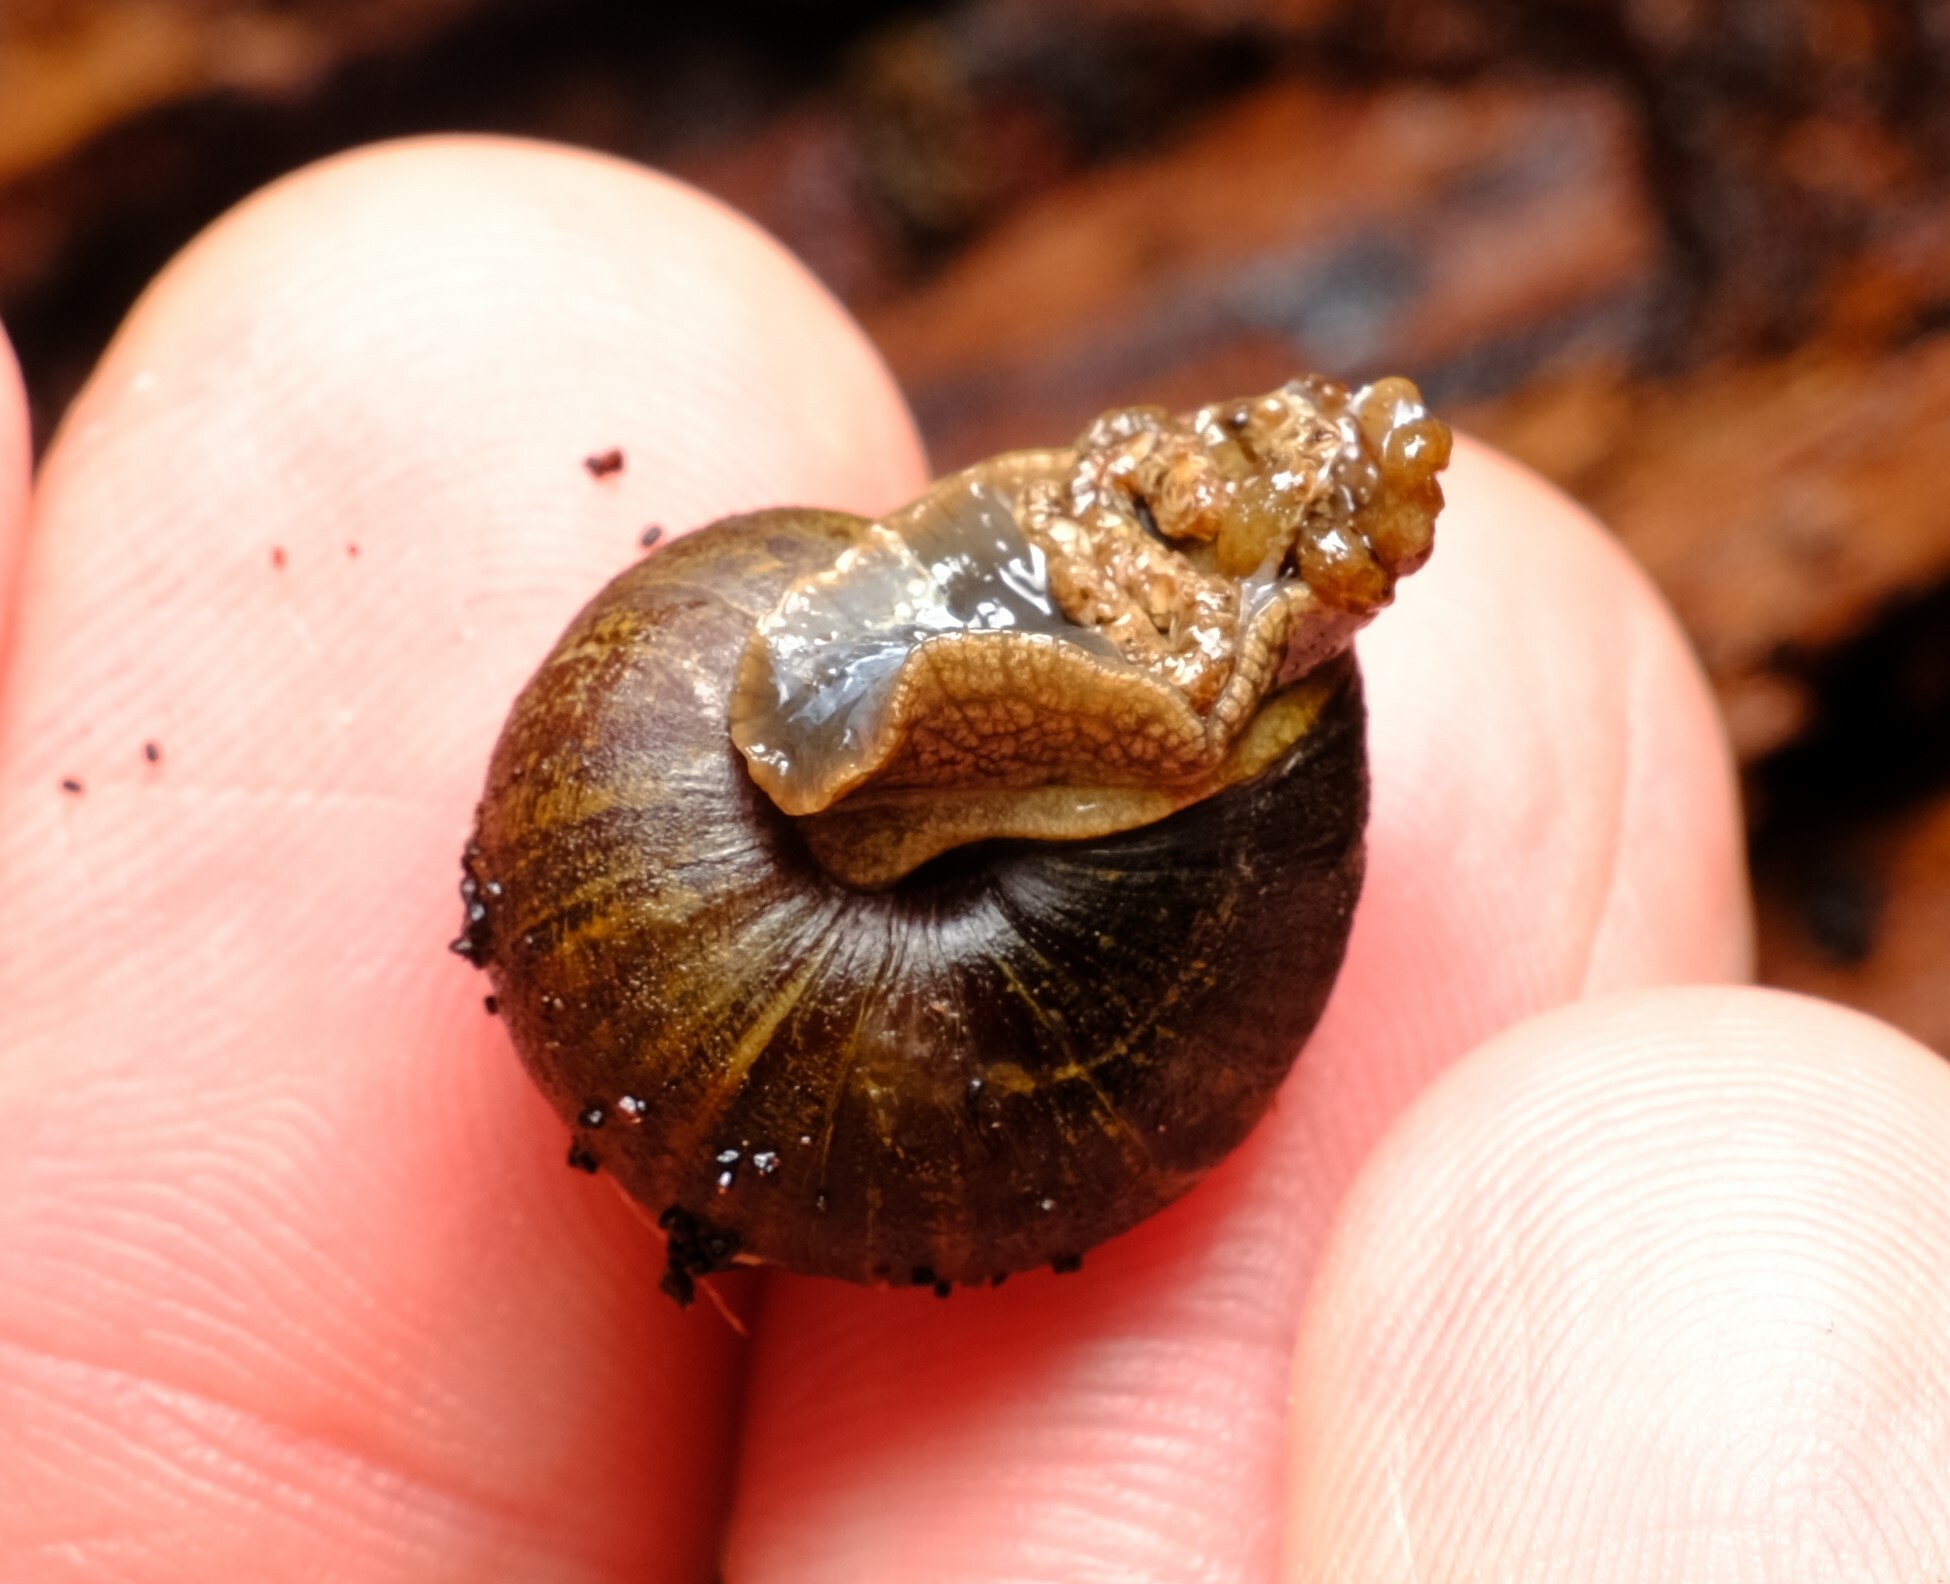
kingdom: Animalia
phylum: Mollusca
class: Gastropoda
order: Stylommatophora
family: Camaenidae
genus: Chloritobadistes
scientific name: Chloritobadistes victoriae
